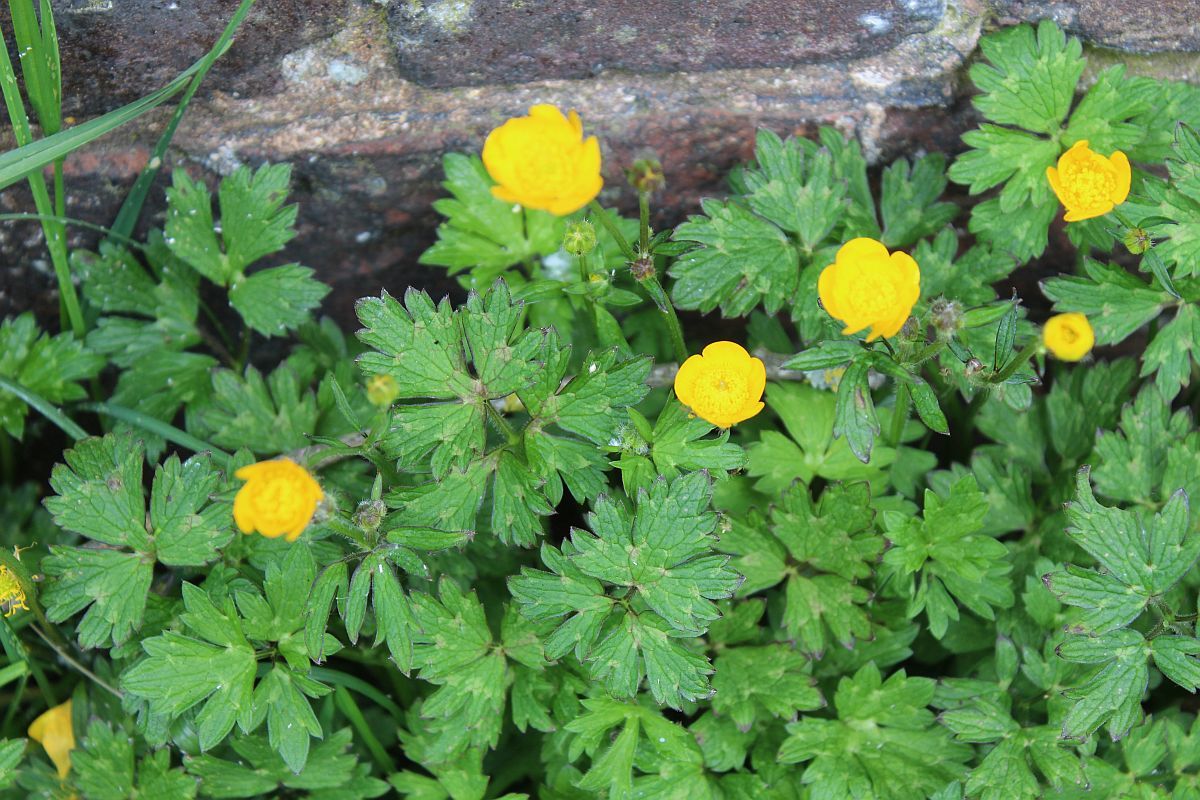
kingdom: Plantae
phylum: Tracheophyta
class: Magnoliopsida
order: Ranunculales
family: Ranunculaceae
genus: Ranunculus
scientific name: Ranunculus repens
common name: Creeping buttercup
